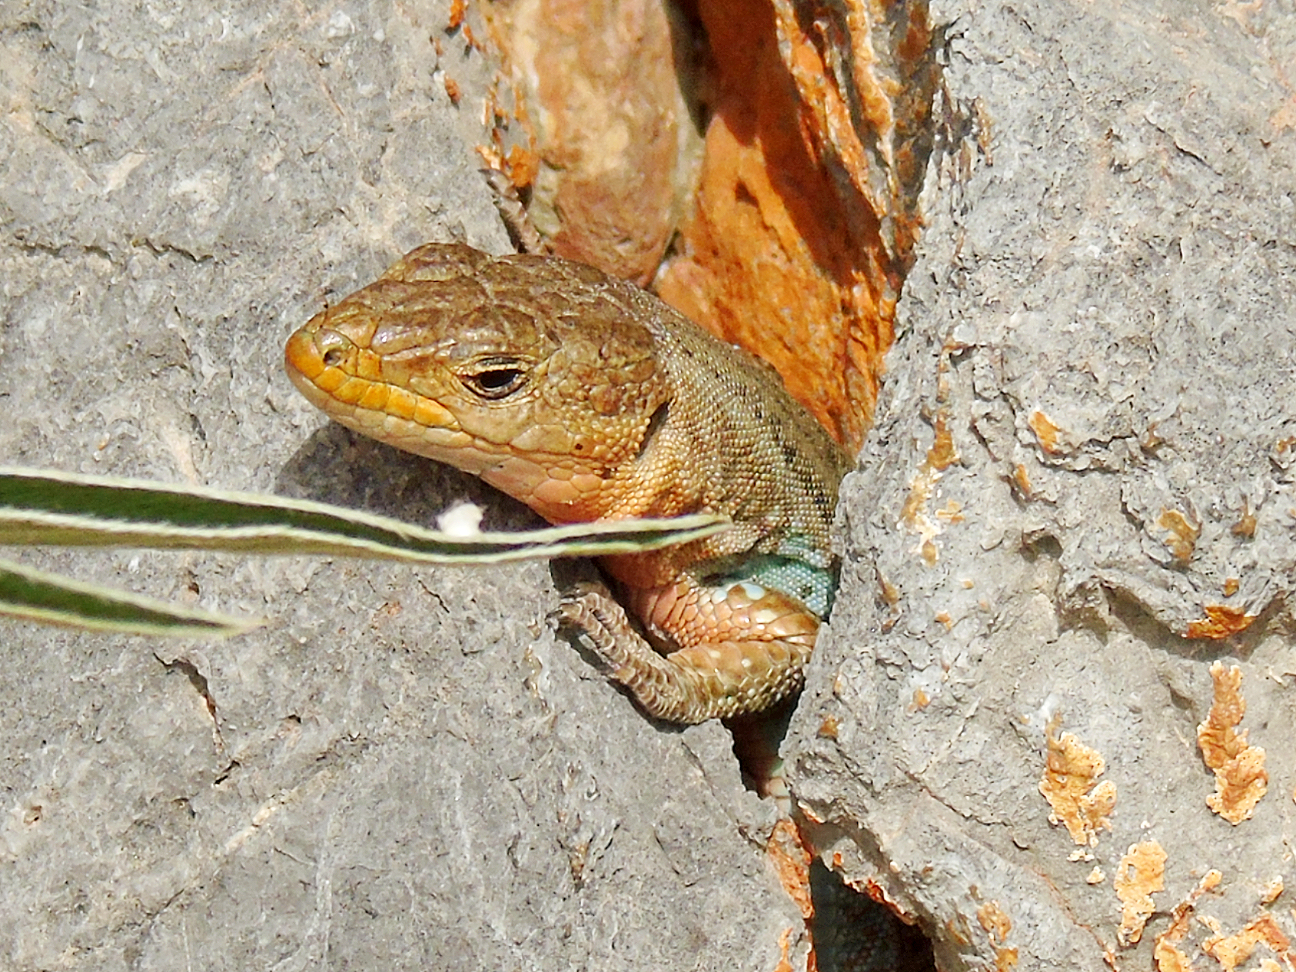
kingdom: Animalia
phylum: Chordata
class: Squamata
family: Lacertidae
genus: Podarcis
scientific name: Podarcis peloponnesiacus
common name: Peloponnese wall lizard
